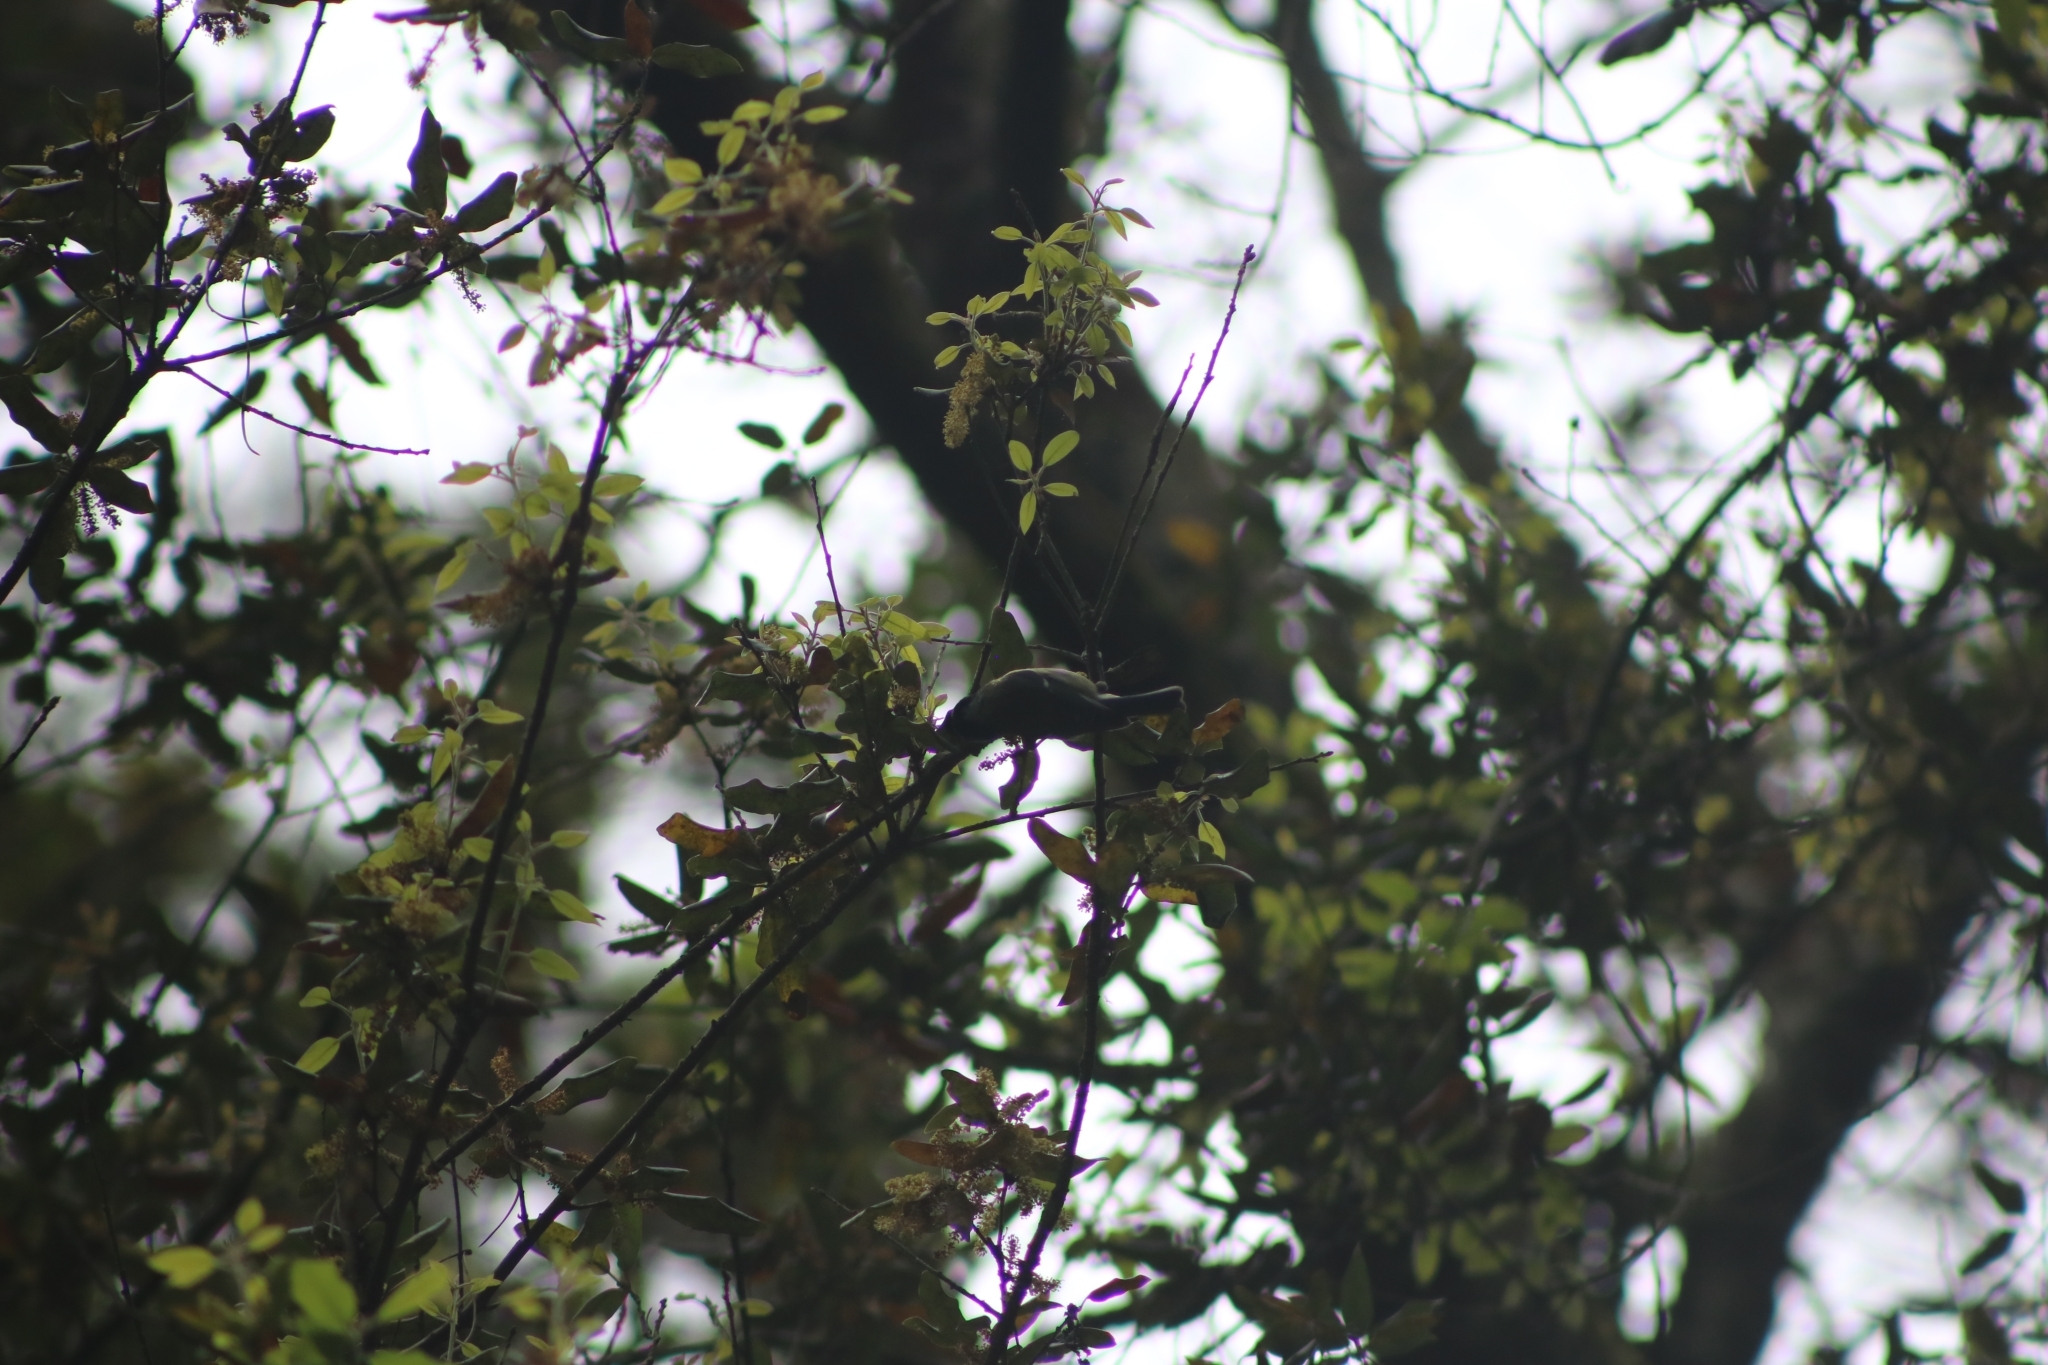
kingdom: Animalia
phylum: Chordata
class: Aves
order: Passeriformes
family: Paridae
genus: Cyanistes
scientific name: Cyanistes caeruleus
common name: Eurasian blue tit
